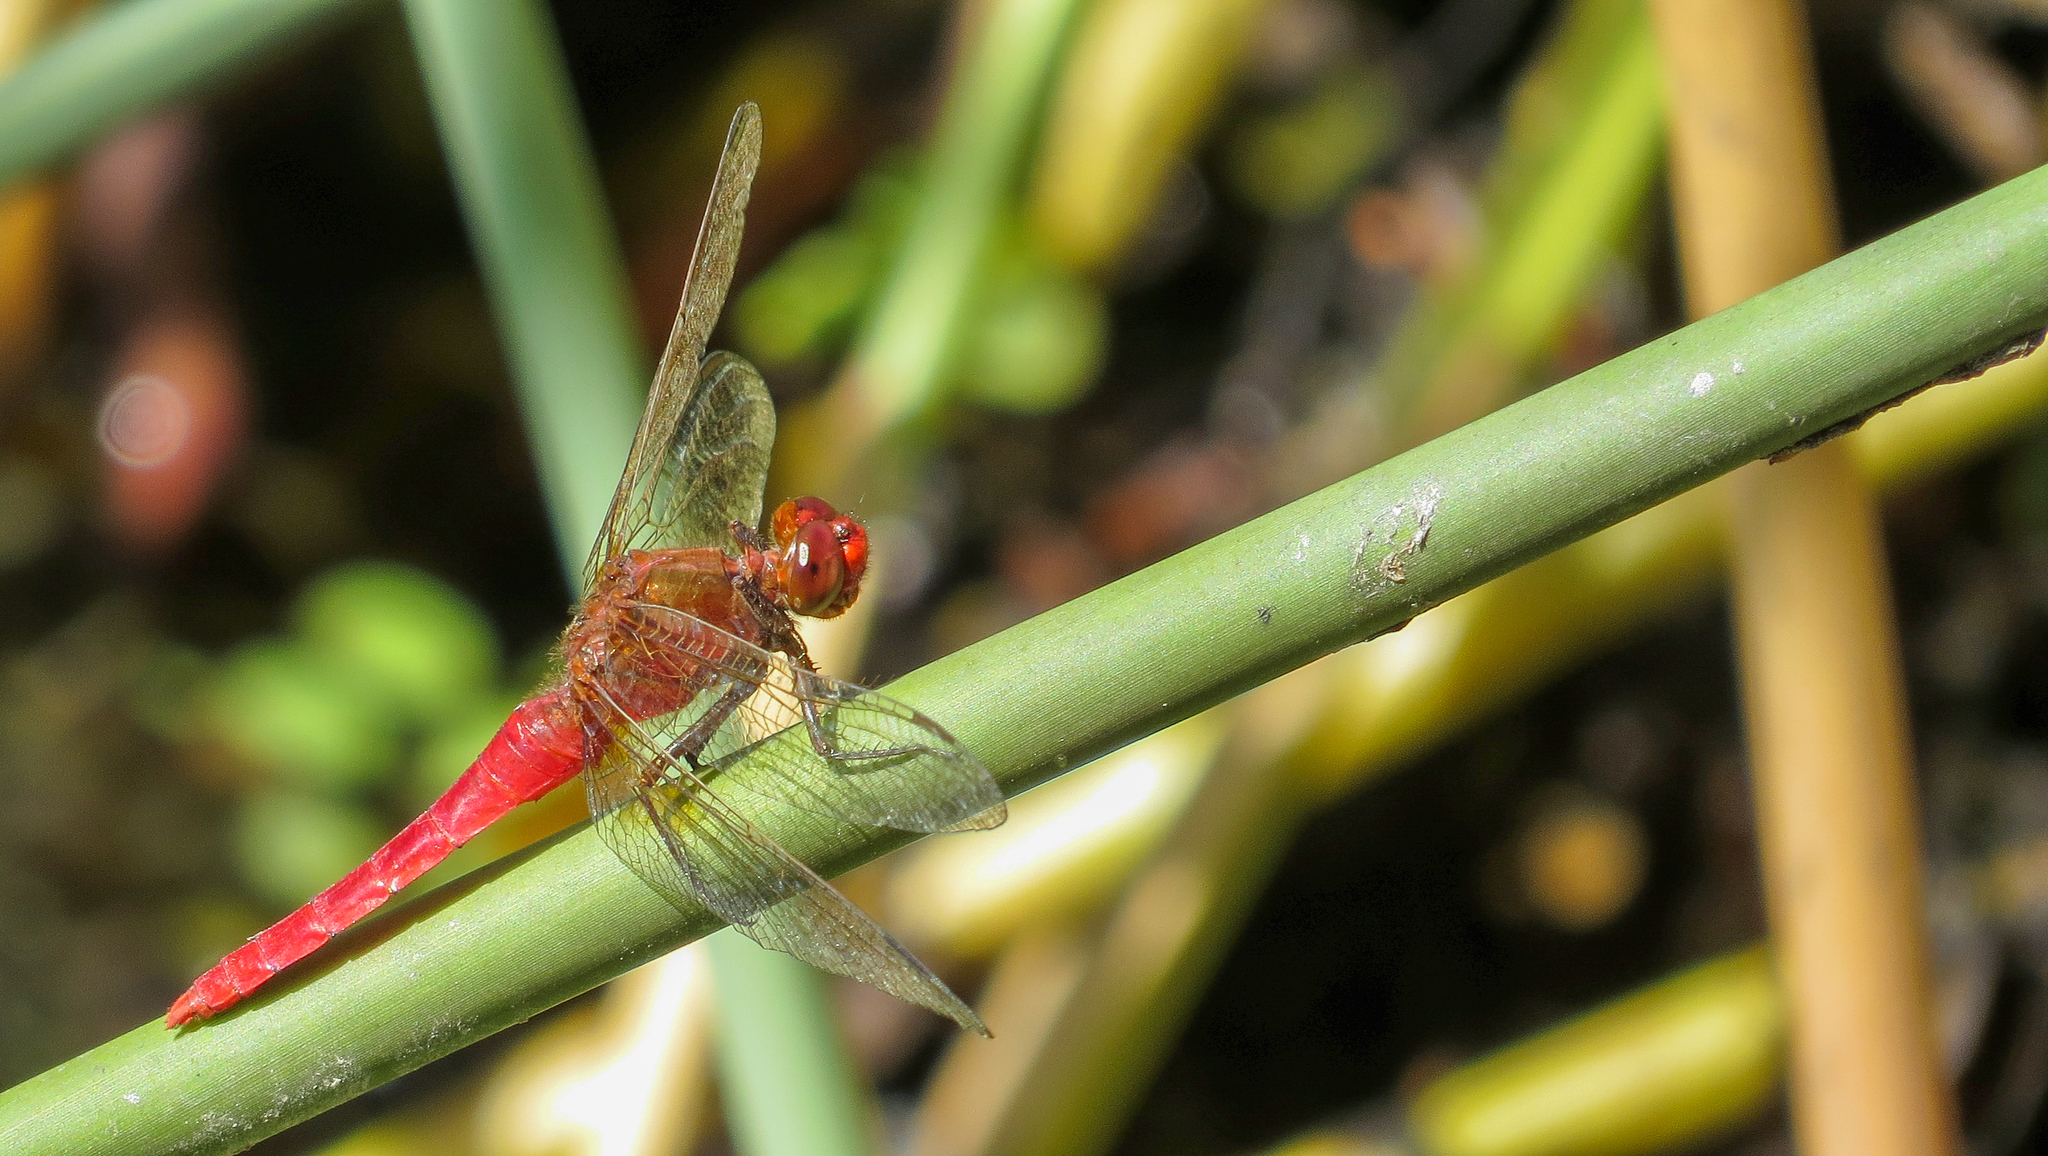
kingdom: Animalia
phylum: Arthropoda
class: Insecta
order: Odonata
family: Libellulidae
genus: Rhodothemis
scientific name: Rhodothemis lieftincki
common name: Red arrow
